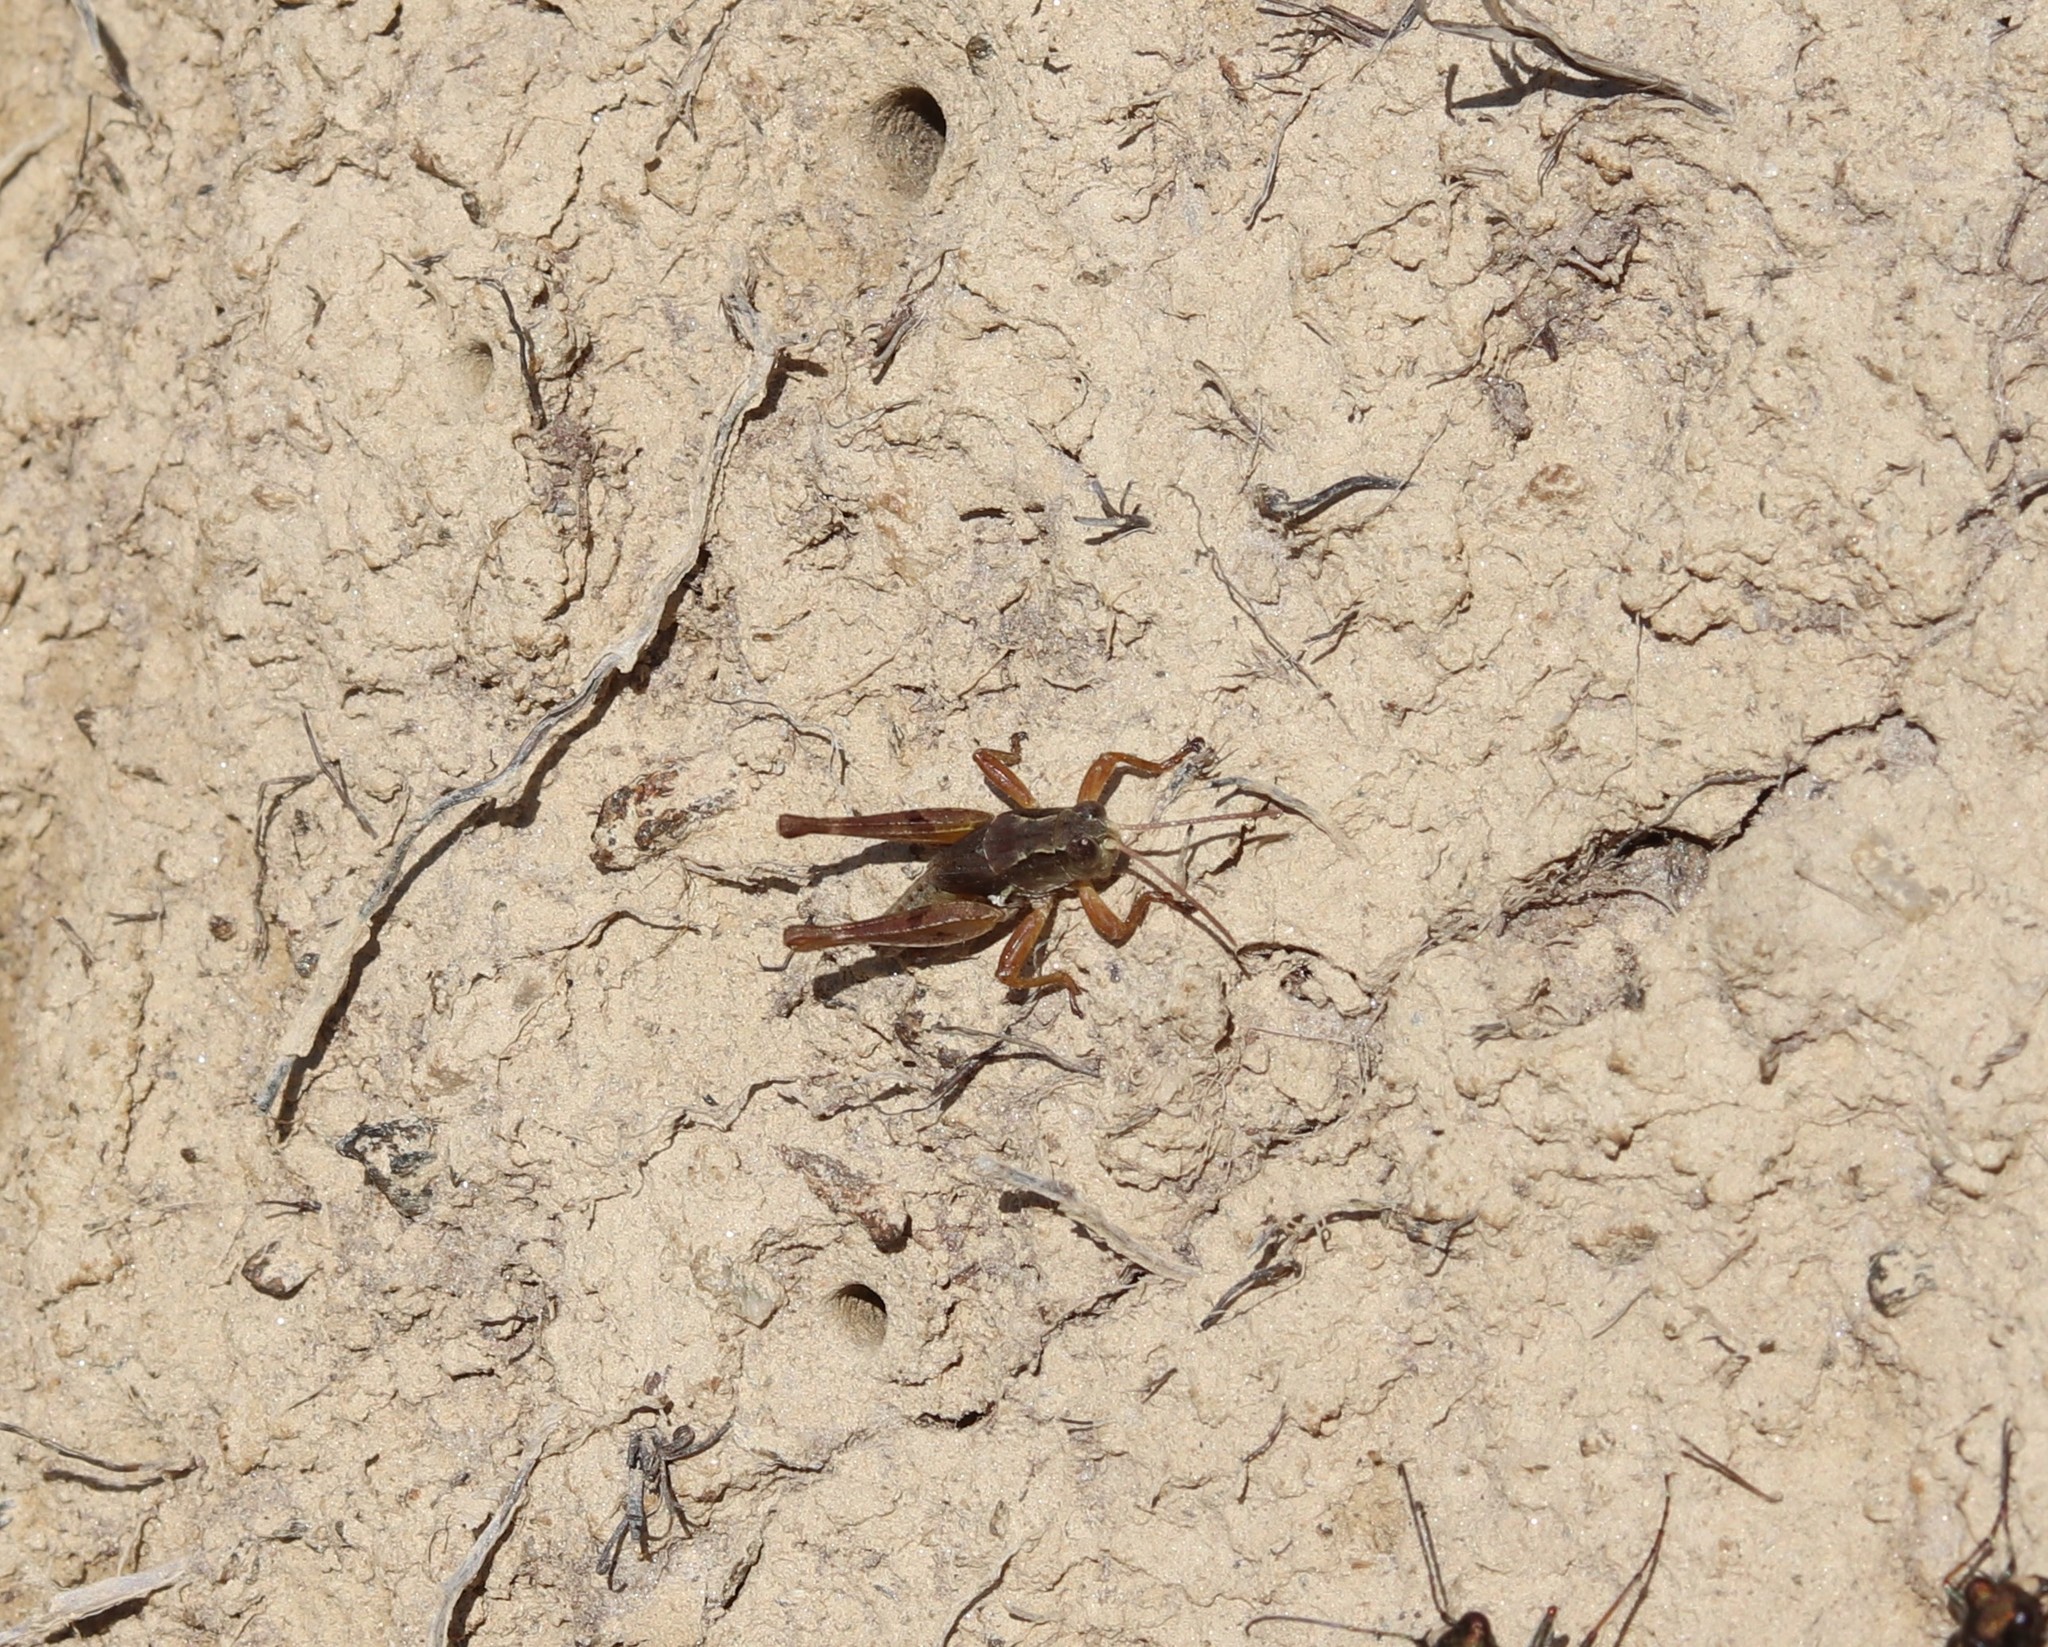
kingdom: Animalia
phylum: Arthropoda
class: Insecta
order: Orthoptera
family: Acrididae
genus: Phaulacridium
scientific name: Phaulacridium marginale
